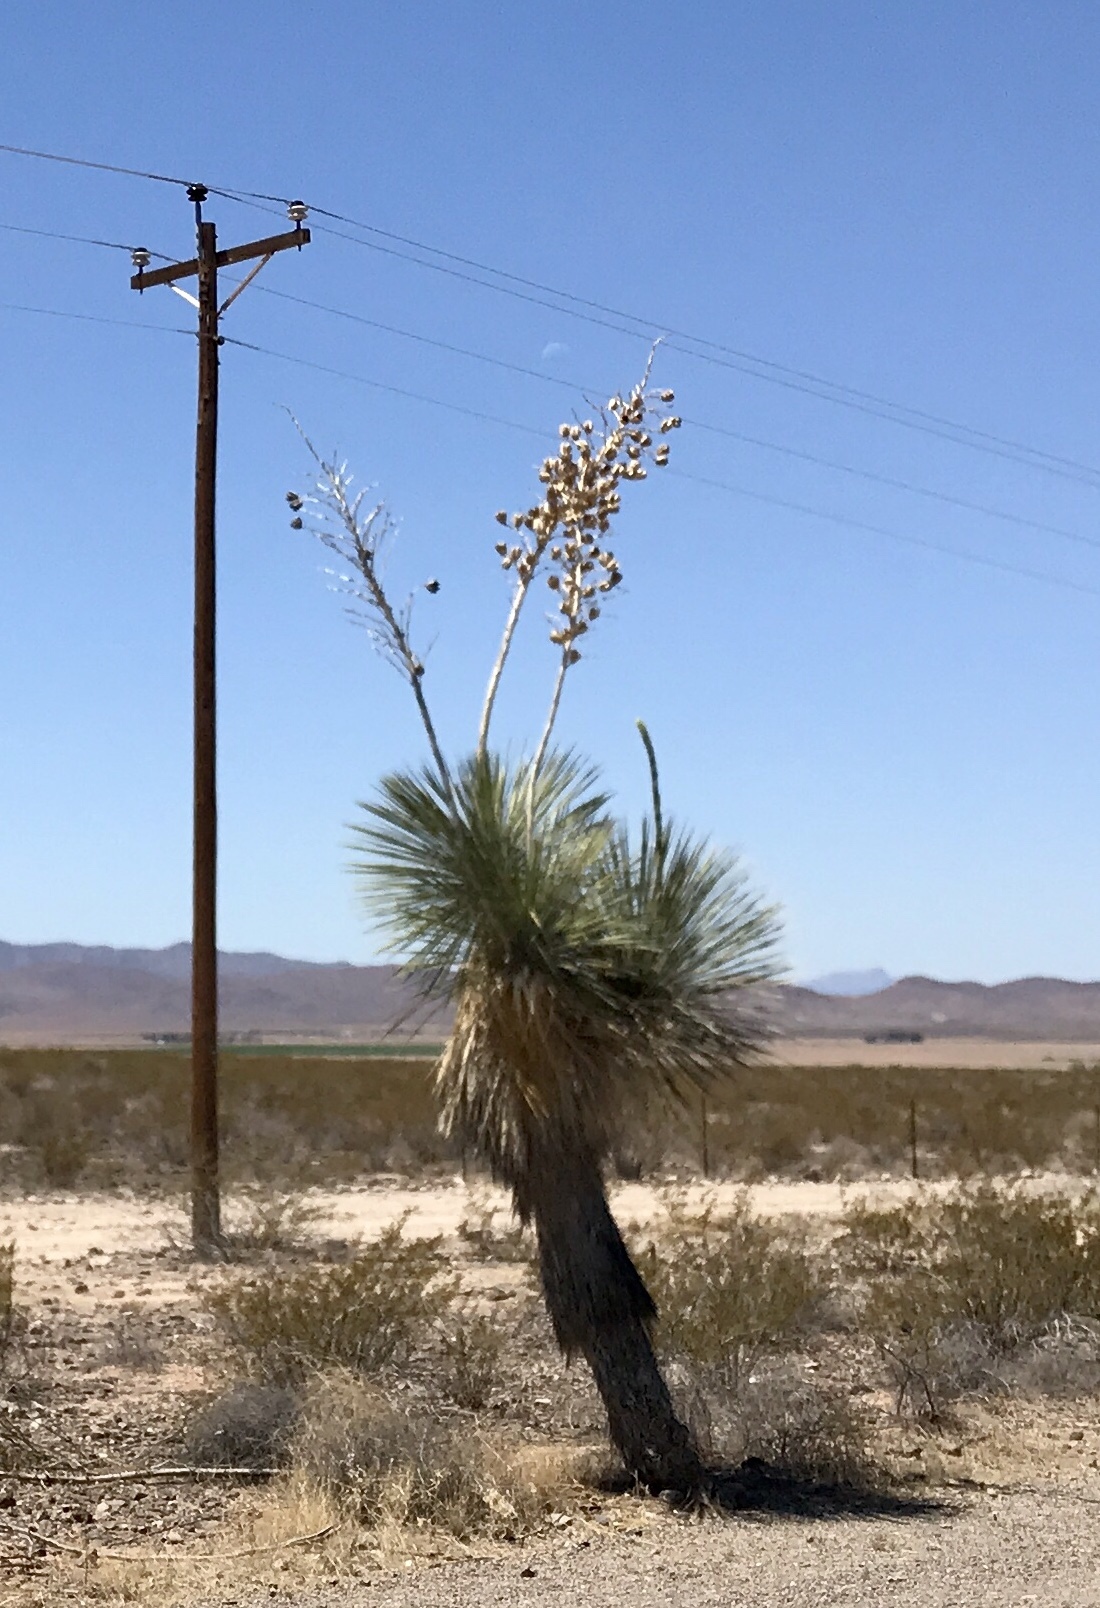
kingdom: Plantae
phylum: Tracheophyta
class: Liliopsida
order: Asparagales
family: Asparagaceae
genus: Yucca
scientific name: Yucca elata
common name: Palmella
